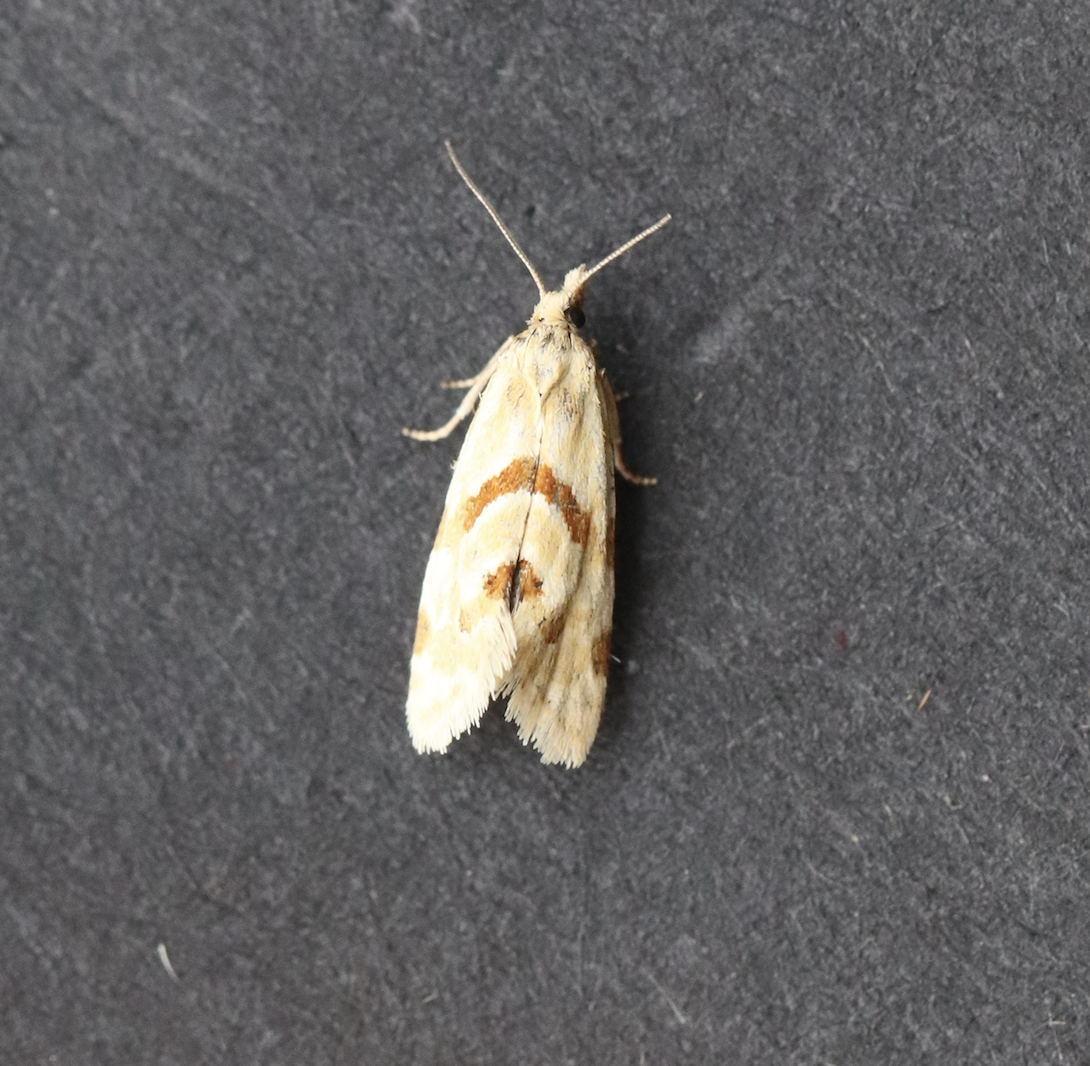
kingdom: Animalia
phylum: Arthropoda
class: Insecta
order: Lepidoptera
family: Tortricidae
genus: Aethes
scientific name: Aethes smeathmanniana
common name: Yarrow conch
